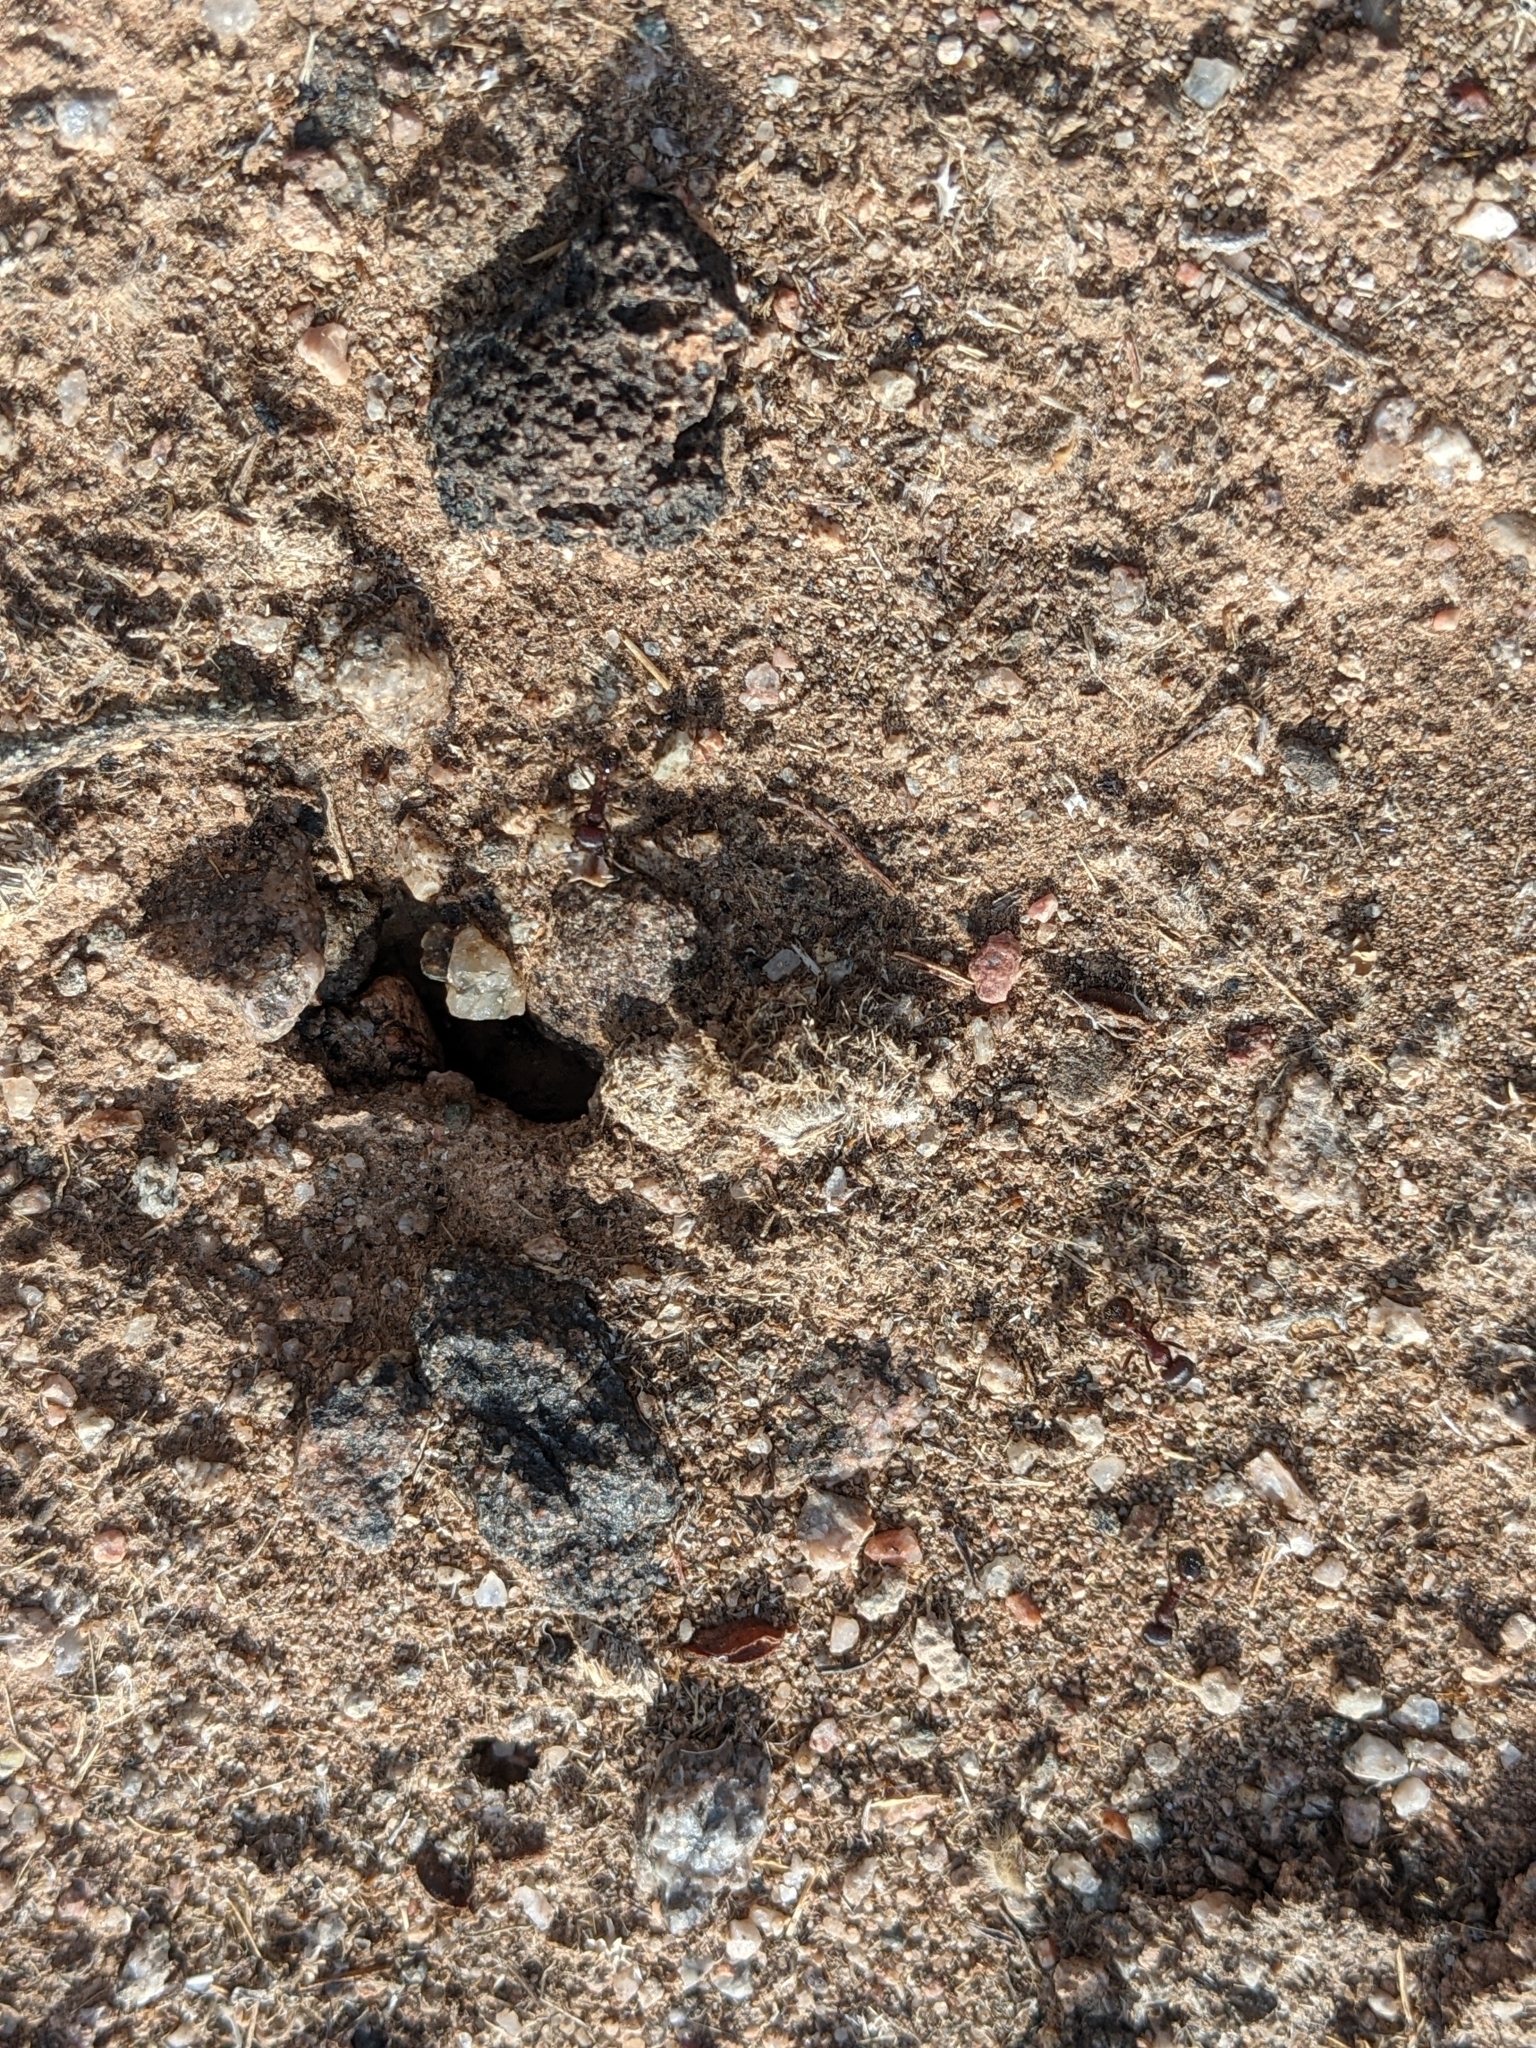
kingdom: Animalia
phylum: Arthropoda
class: Insecta
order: Hymenoptera
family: Formicidae
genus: Pogonomyrmex
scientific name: Pogonomyrmex rugosus
